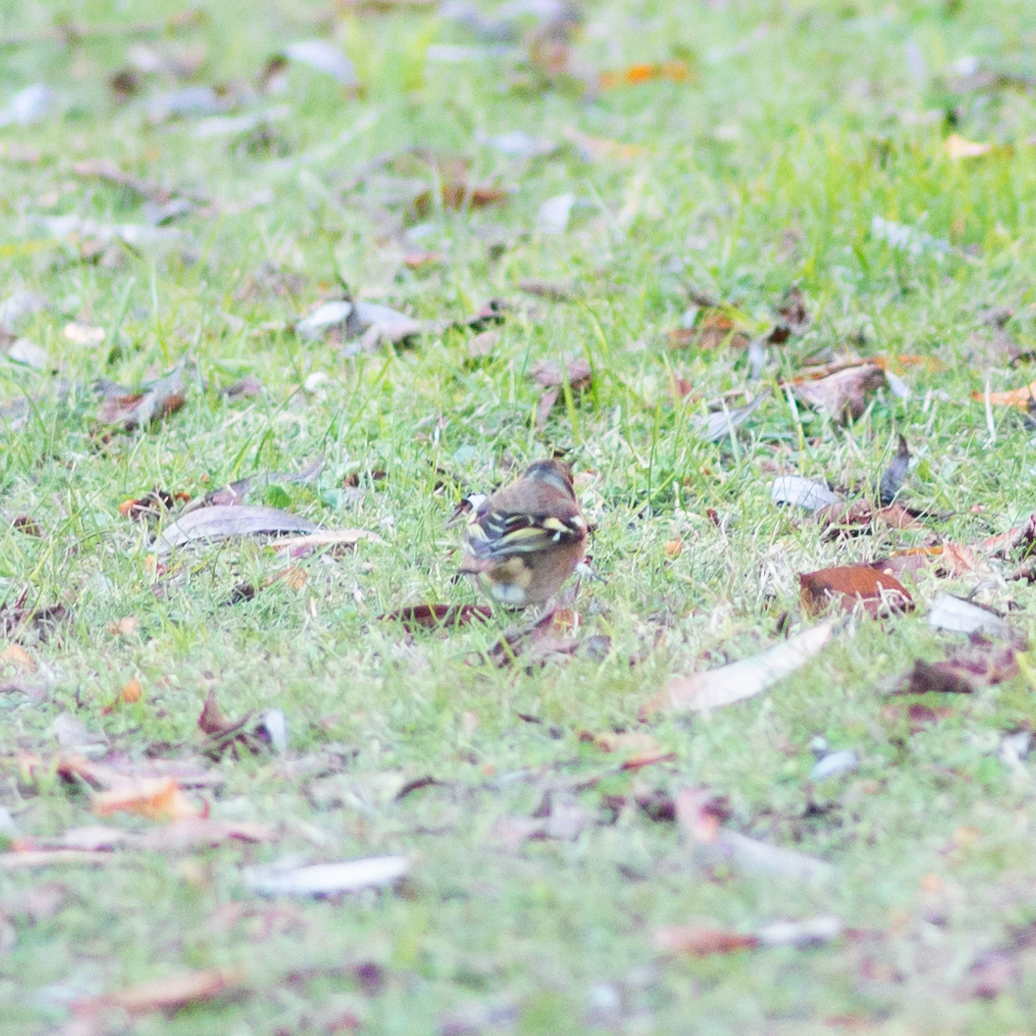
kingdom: Animalia
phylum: Chordata
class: Aves
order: Passeriformes
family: Fringillidae
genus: Fringilla
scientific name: Fringilla coelebs
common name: Common chaffinch
